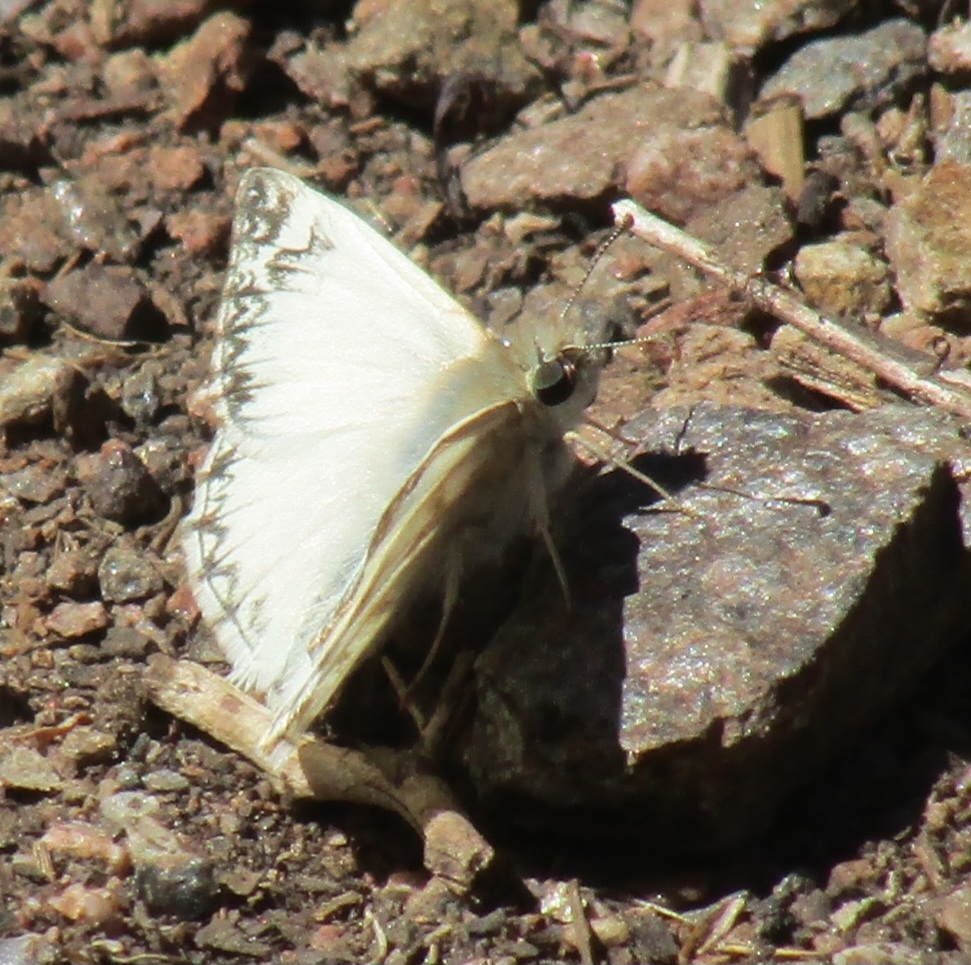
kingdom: Animalia
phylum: Arthropoda
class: Insecta
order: Lepidoptera
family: Hesperiidae
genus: Heliopetes
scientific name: Heliopetes ericetorum
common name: Northern white-skipper
